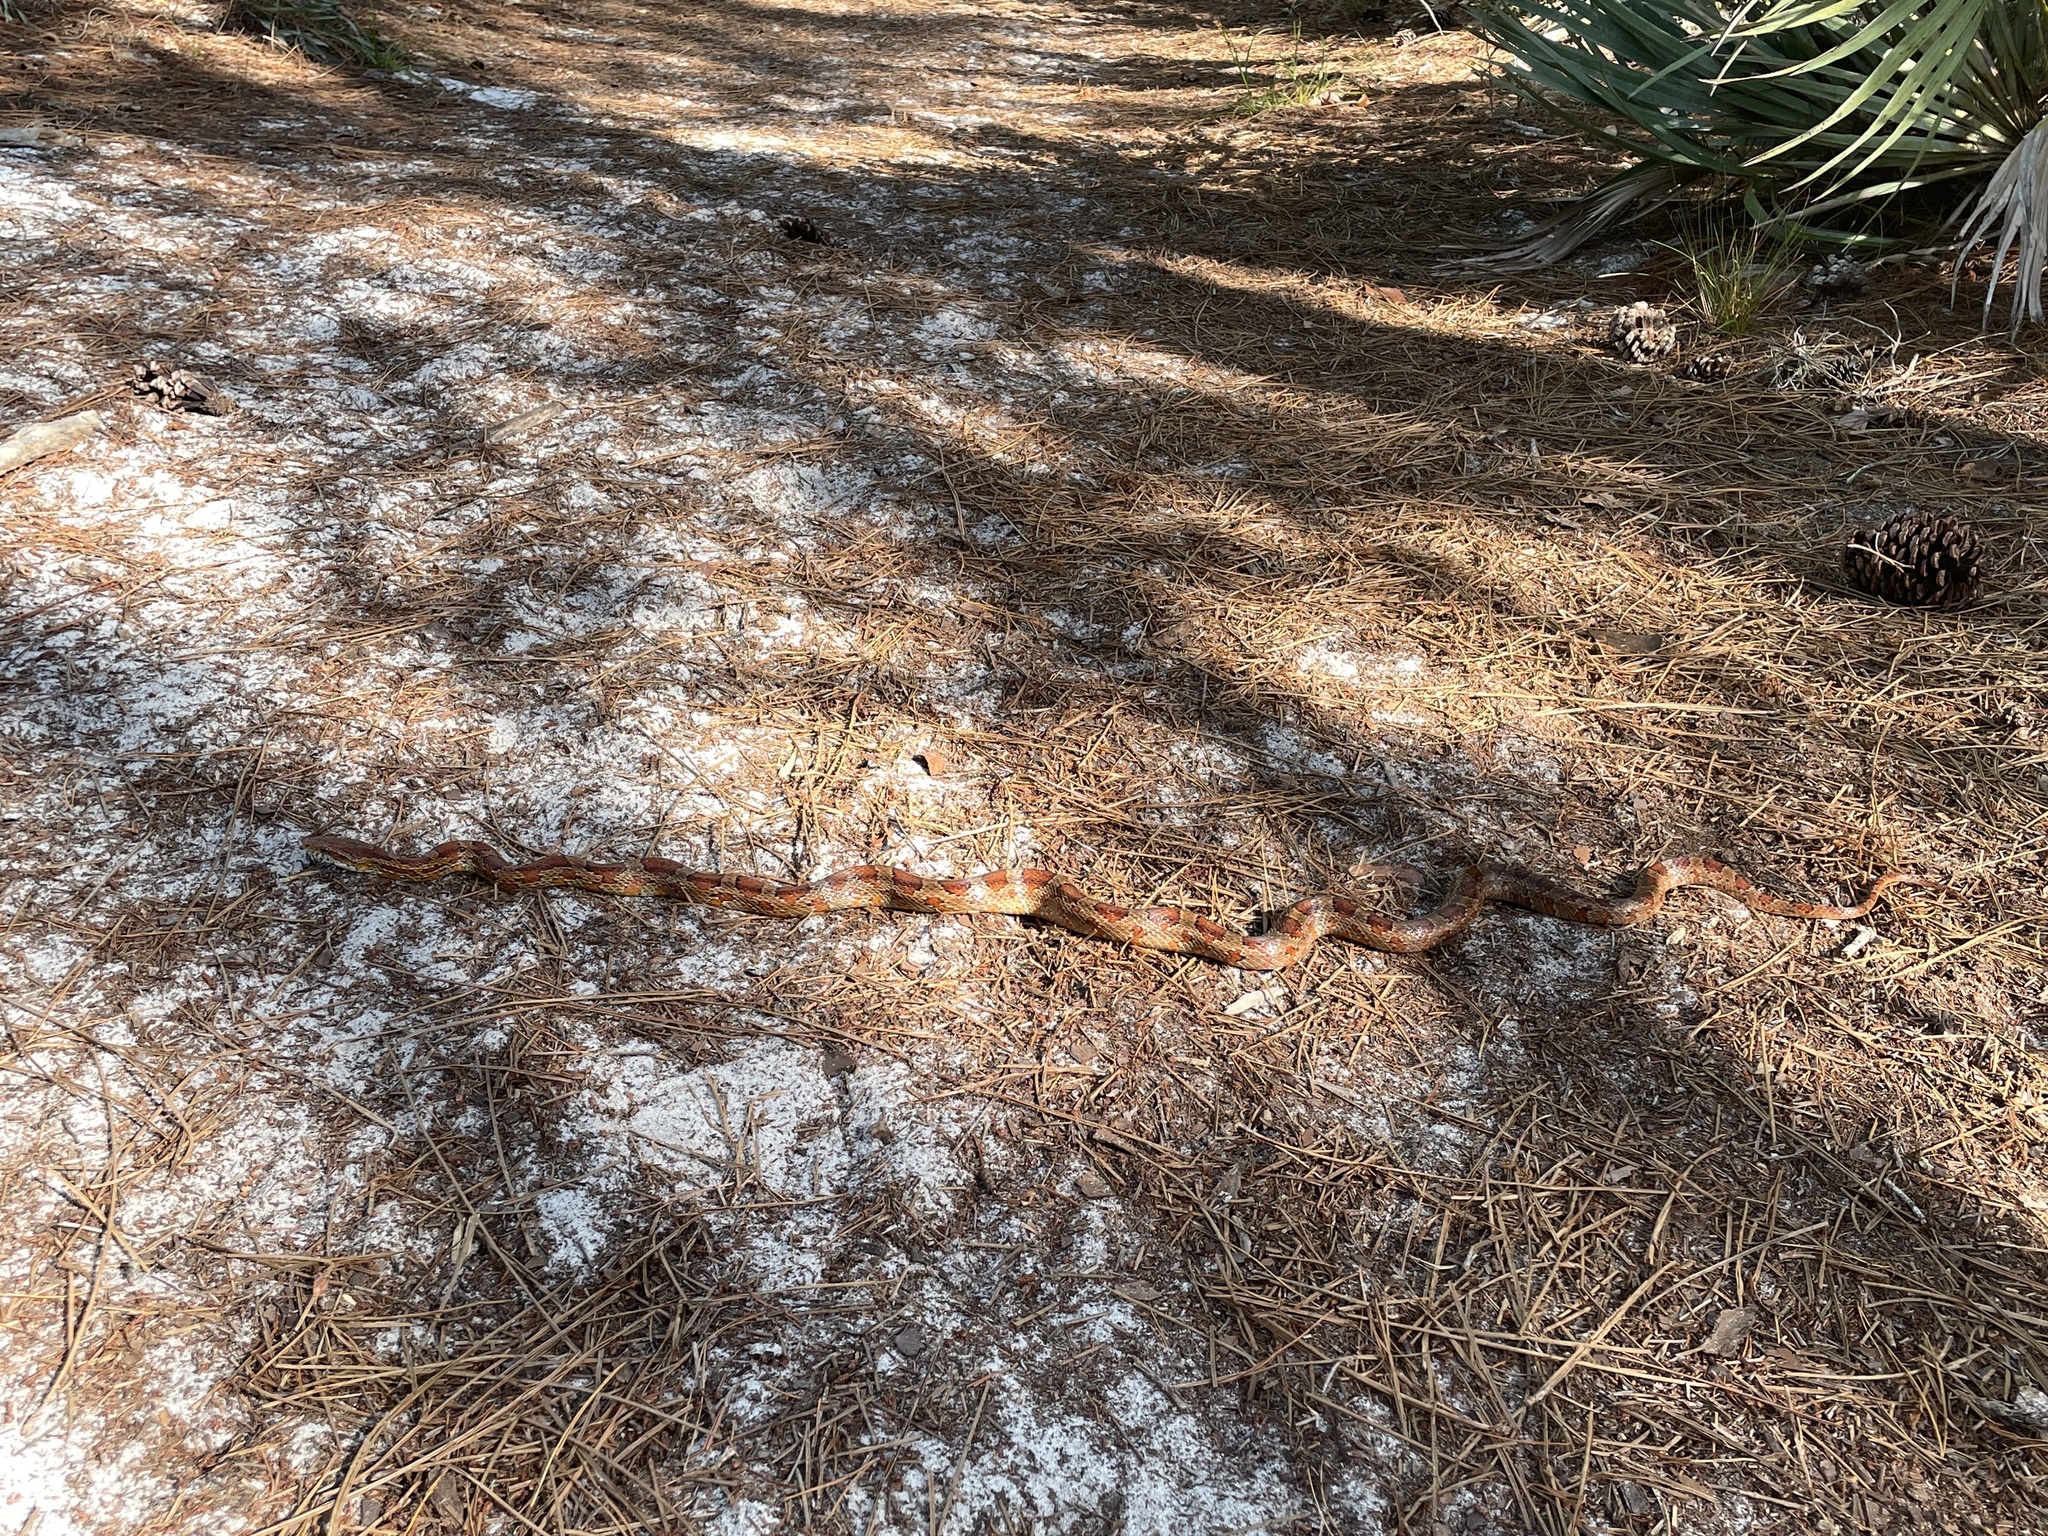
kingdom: Animalia
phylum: Chordata
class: Squamata
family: Colubridae
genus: Pantherophis
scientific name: Pantherophis guttatus
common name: Red cornsnake
